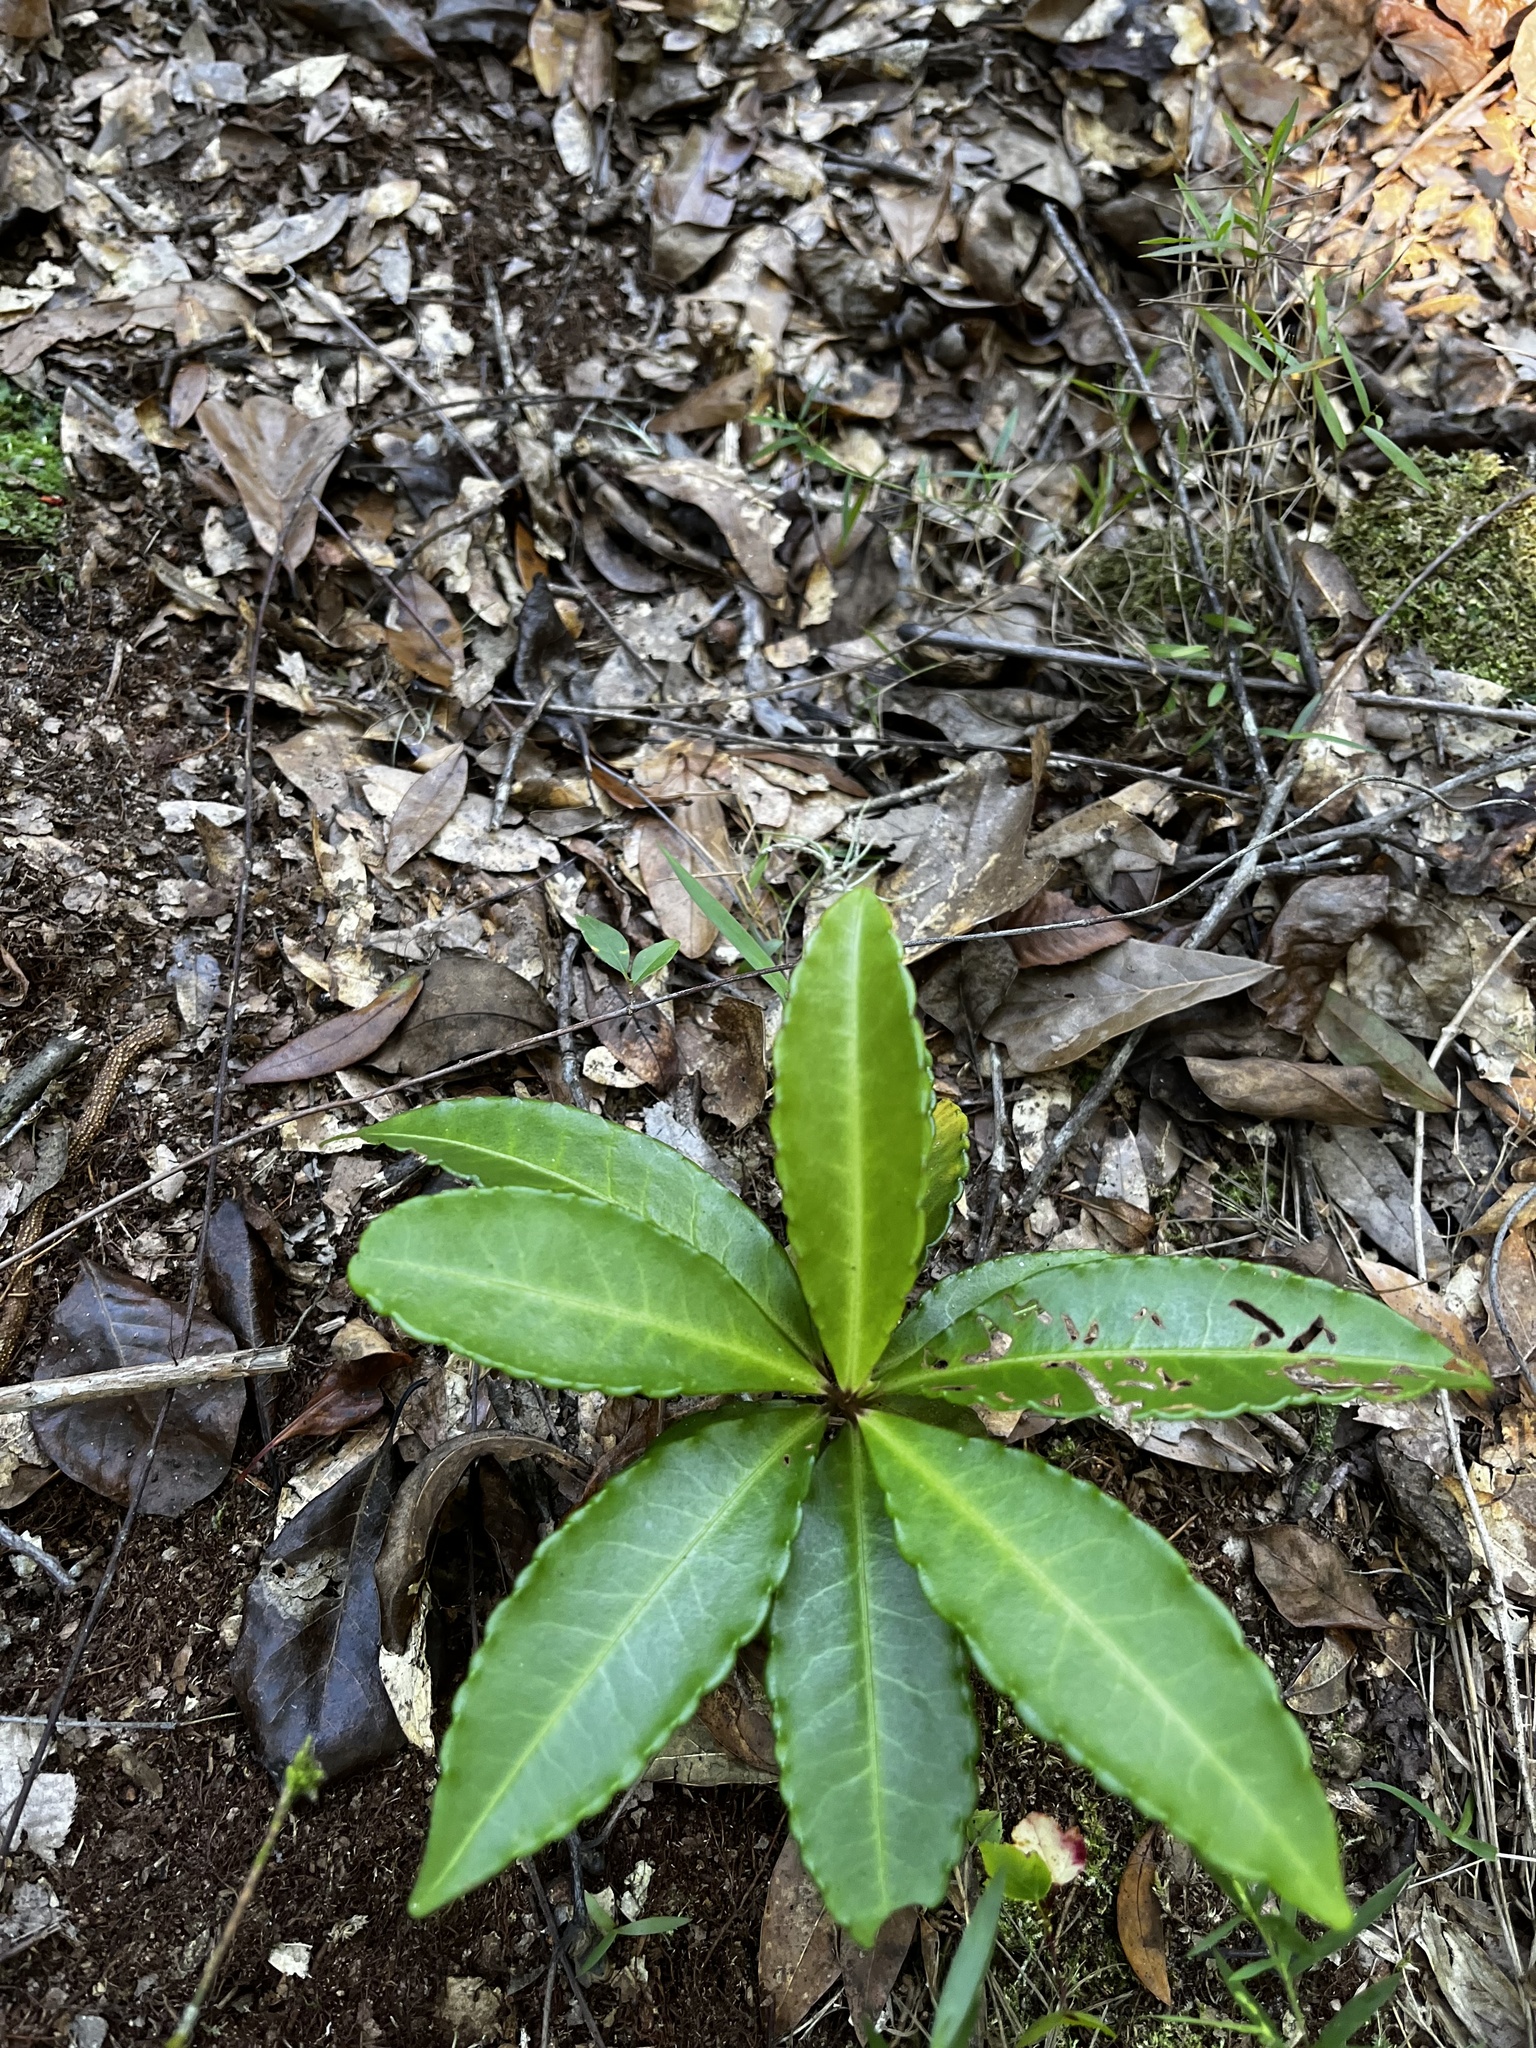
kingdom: Plantae
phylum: Tracheophyta
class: Magnoliopsida
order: Ericales
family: Primulaceae
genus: Ardisia
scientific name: Ardisia crenata
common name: Hen's eyes
